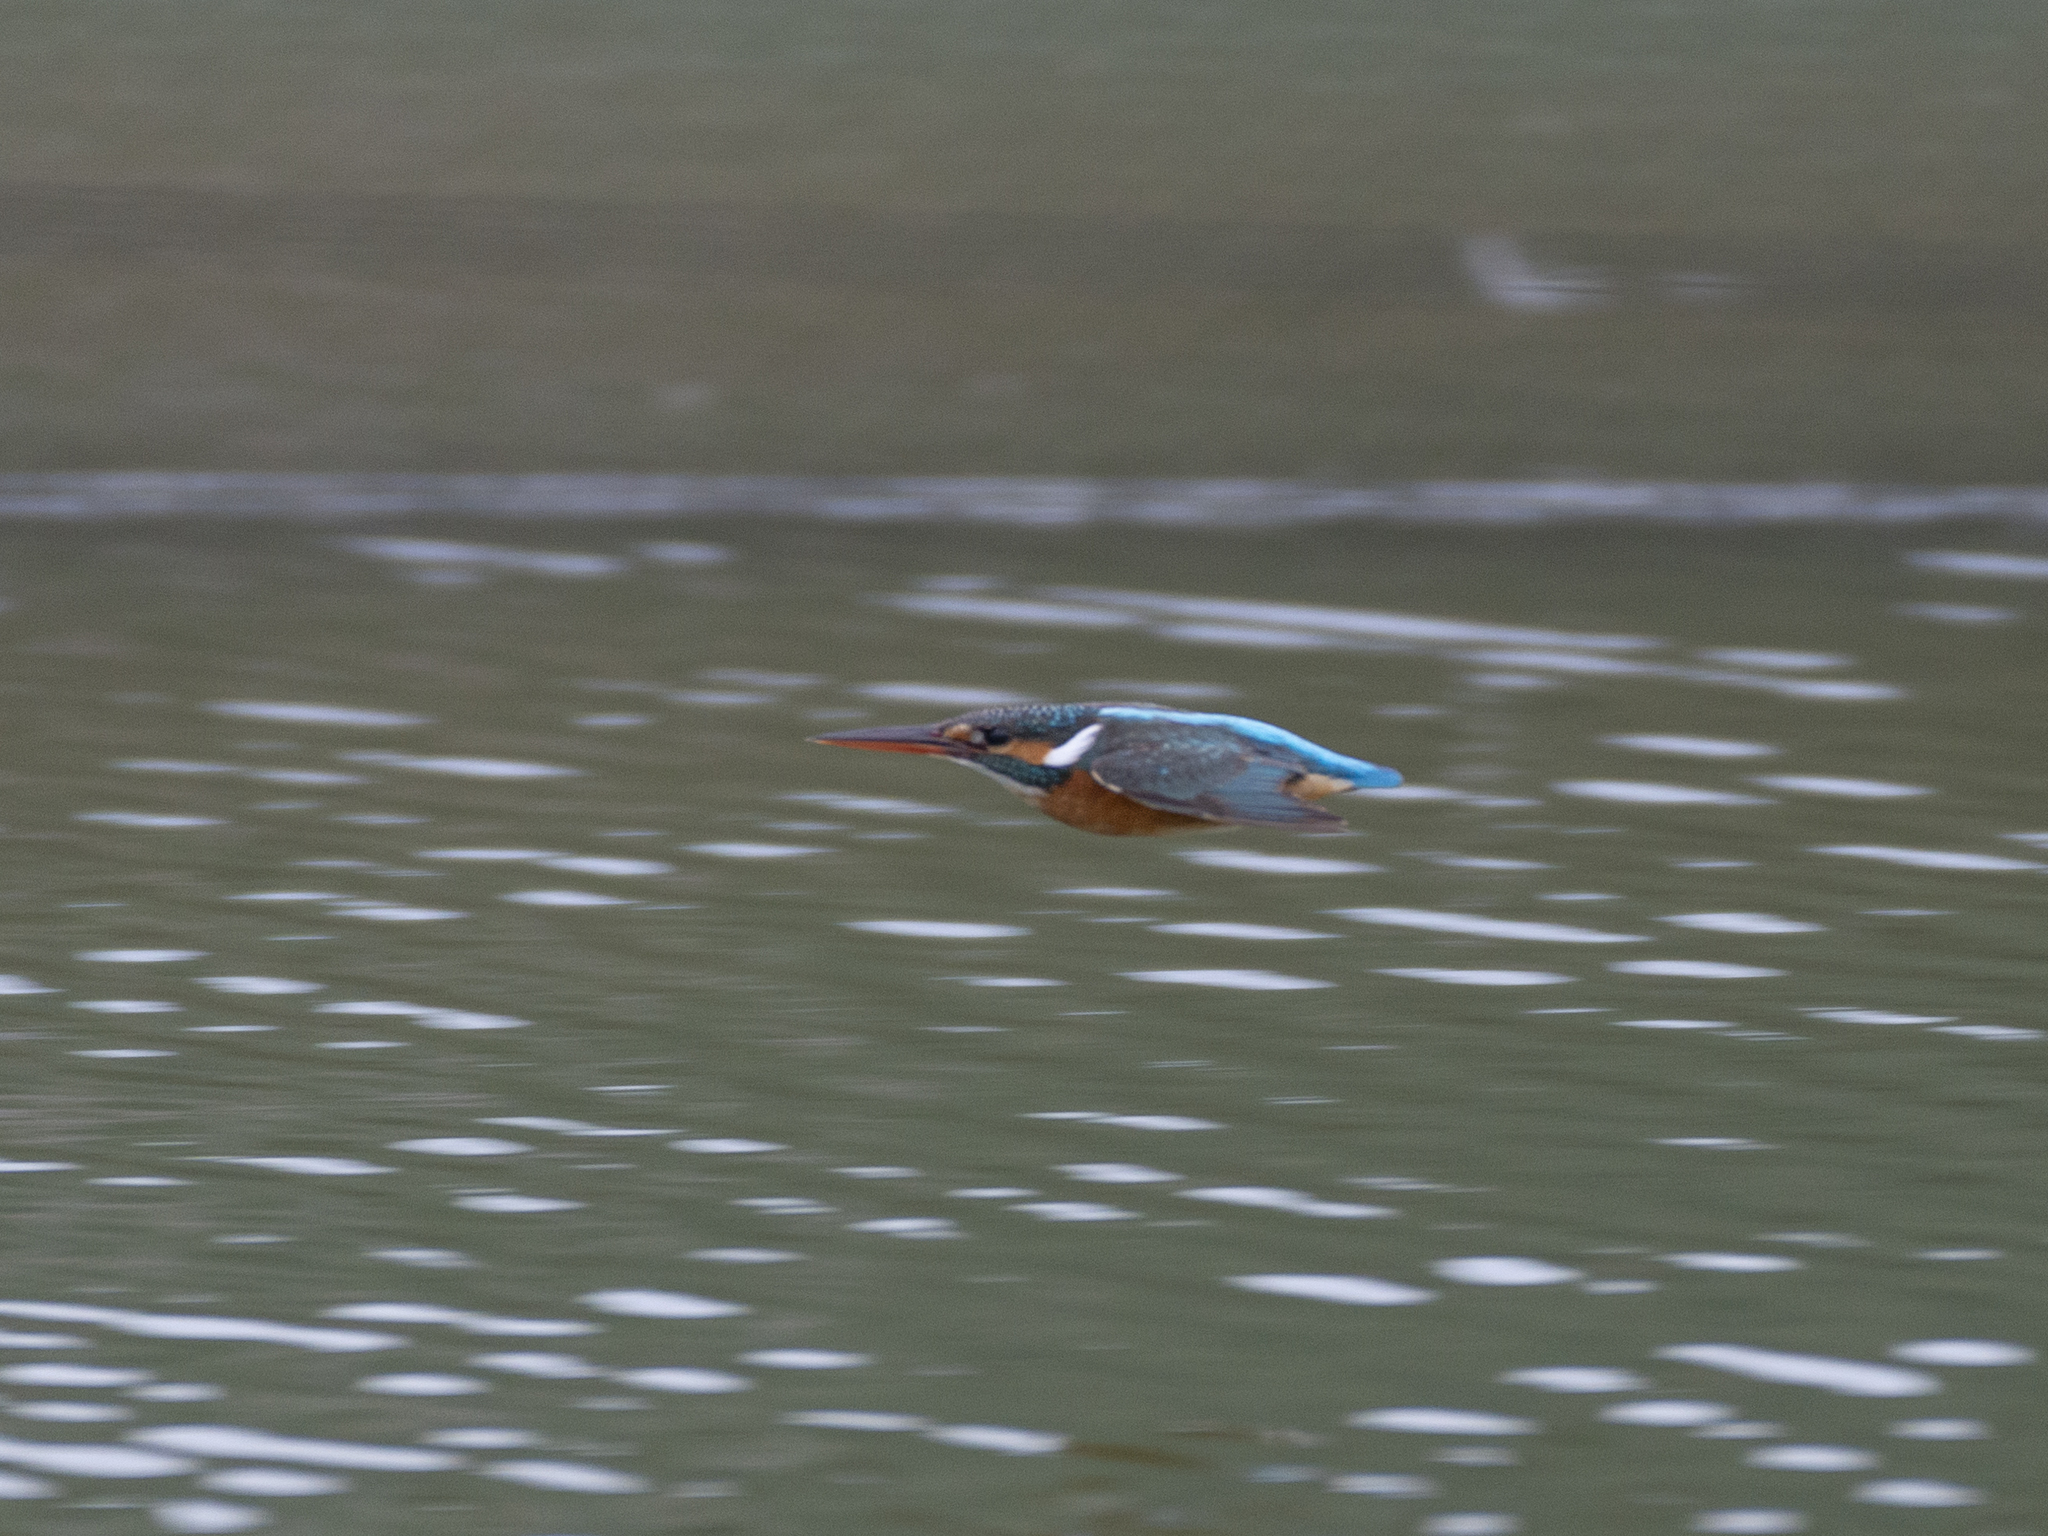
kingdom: Animalia
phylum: Chordata
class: Aves
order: Coraciiformes
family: Alcedinidae
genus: Alcedo
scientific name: Alcedo atthis
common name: Common kingfisher
